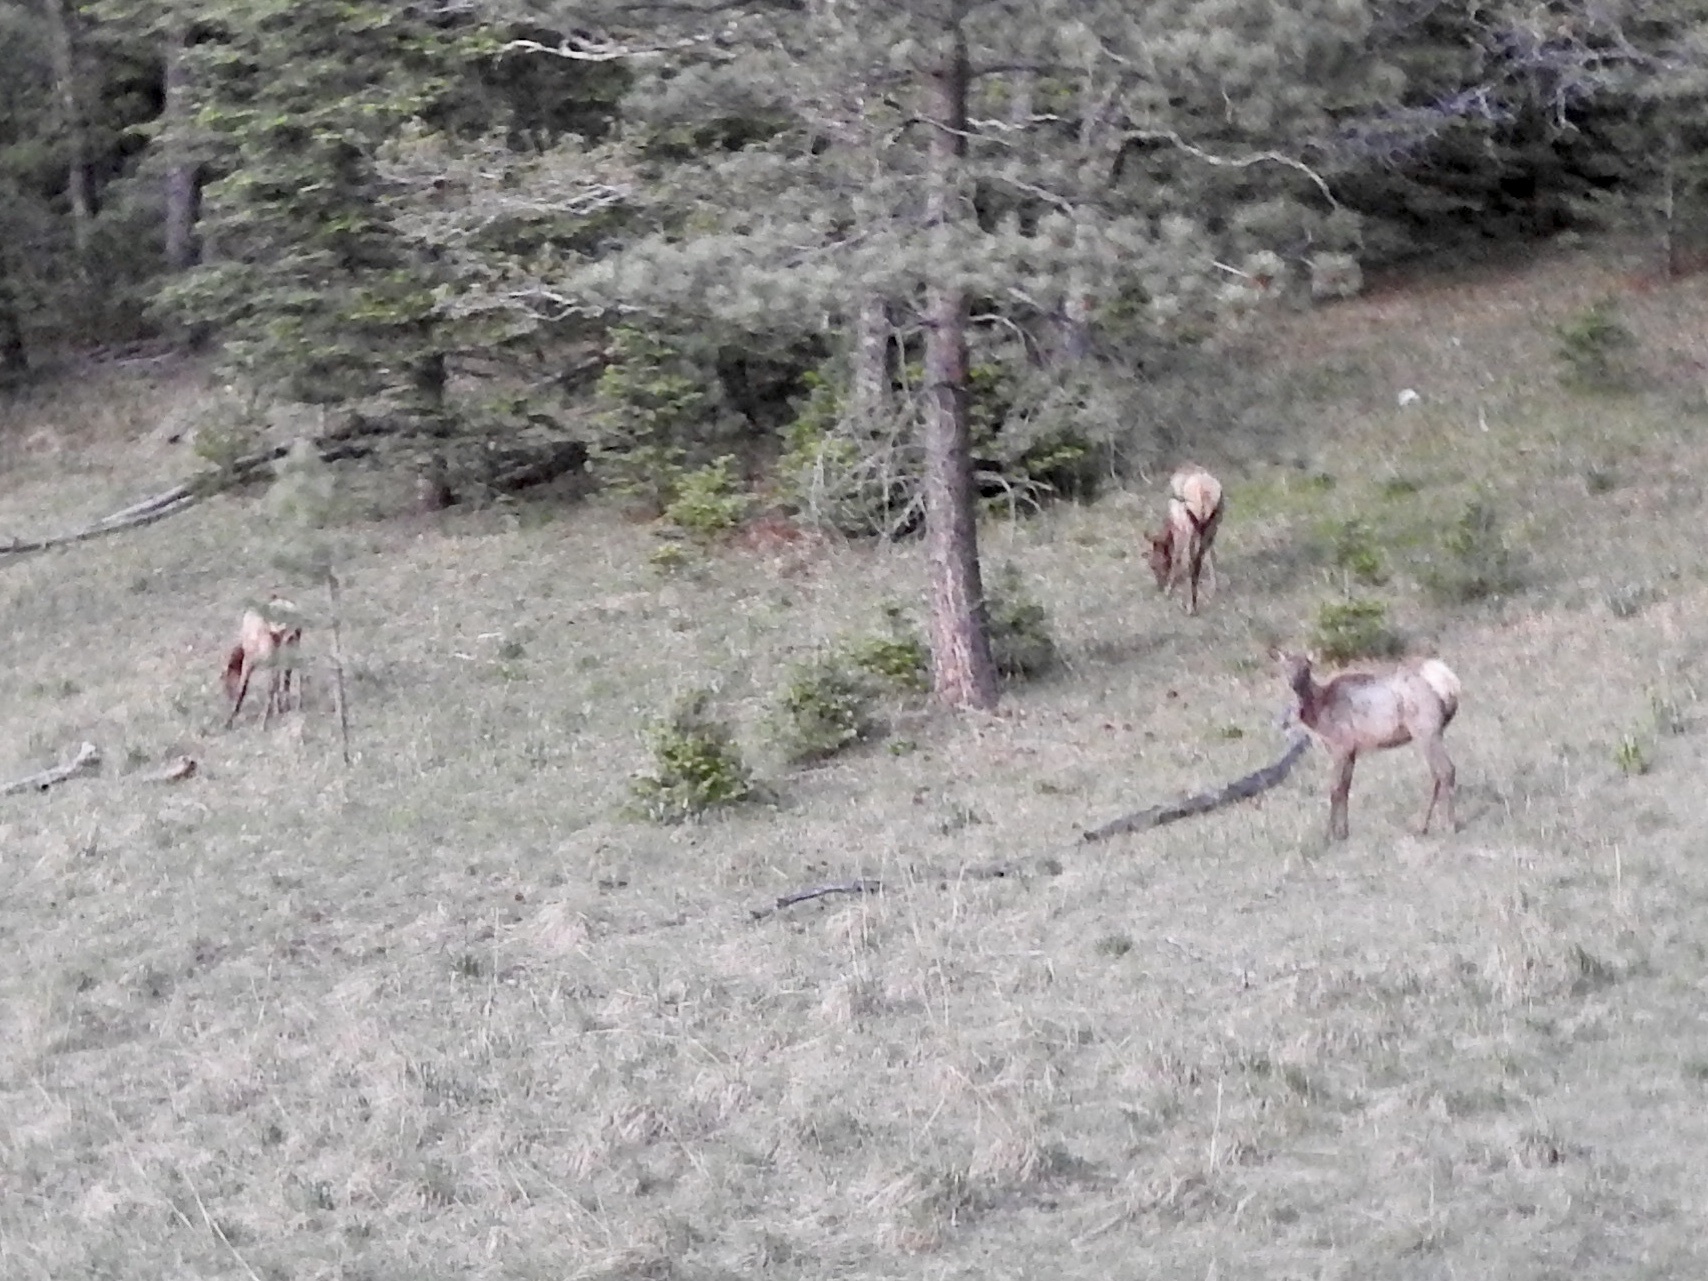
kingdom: Animalia
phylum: Chordata
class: Mammalia
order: Artiodactyla
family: Cervidae
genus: Cervus
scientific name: Cervus elaphus
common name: Red deer
